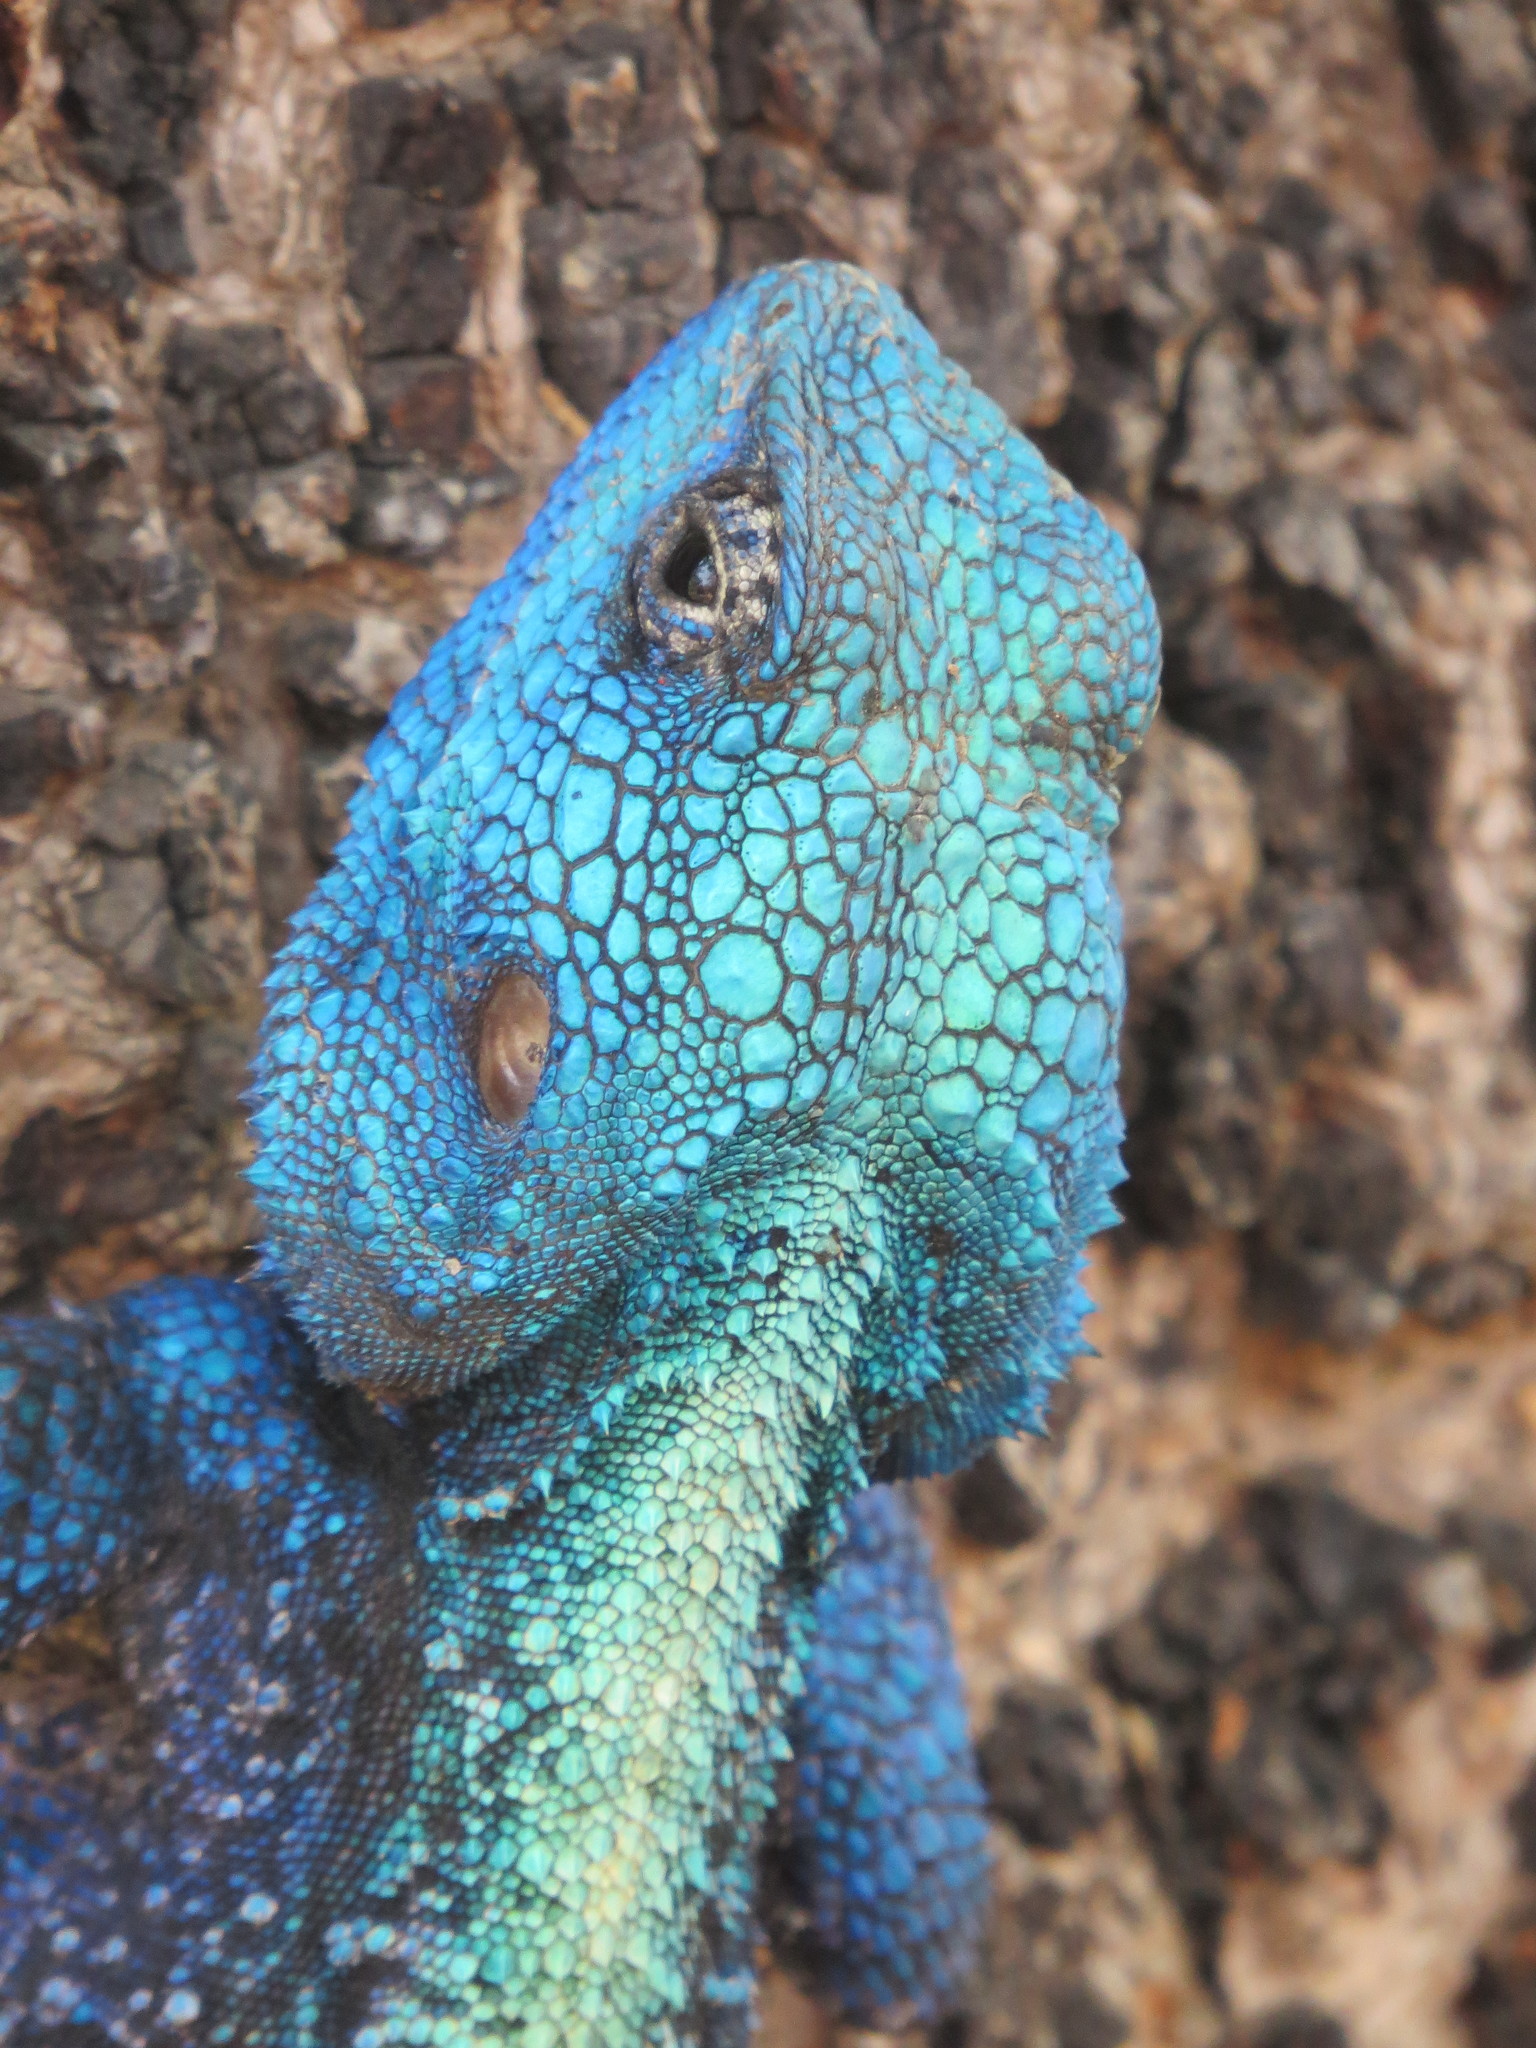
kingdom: Animalia
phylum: Chordata
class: Squamata
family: Agamidae
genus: Acanthocercus
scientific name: Acanthocercus atricollis
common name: Southern tree agama
